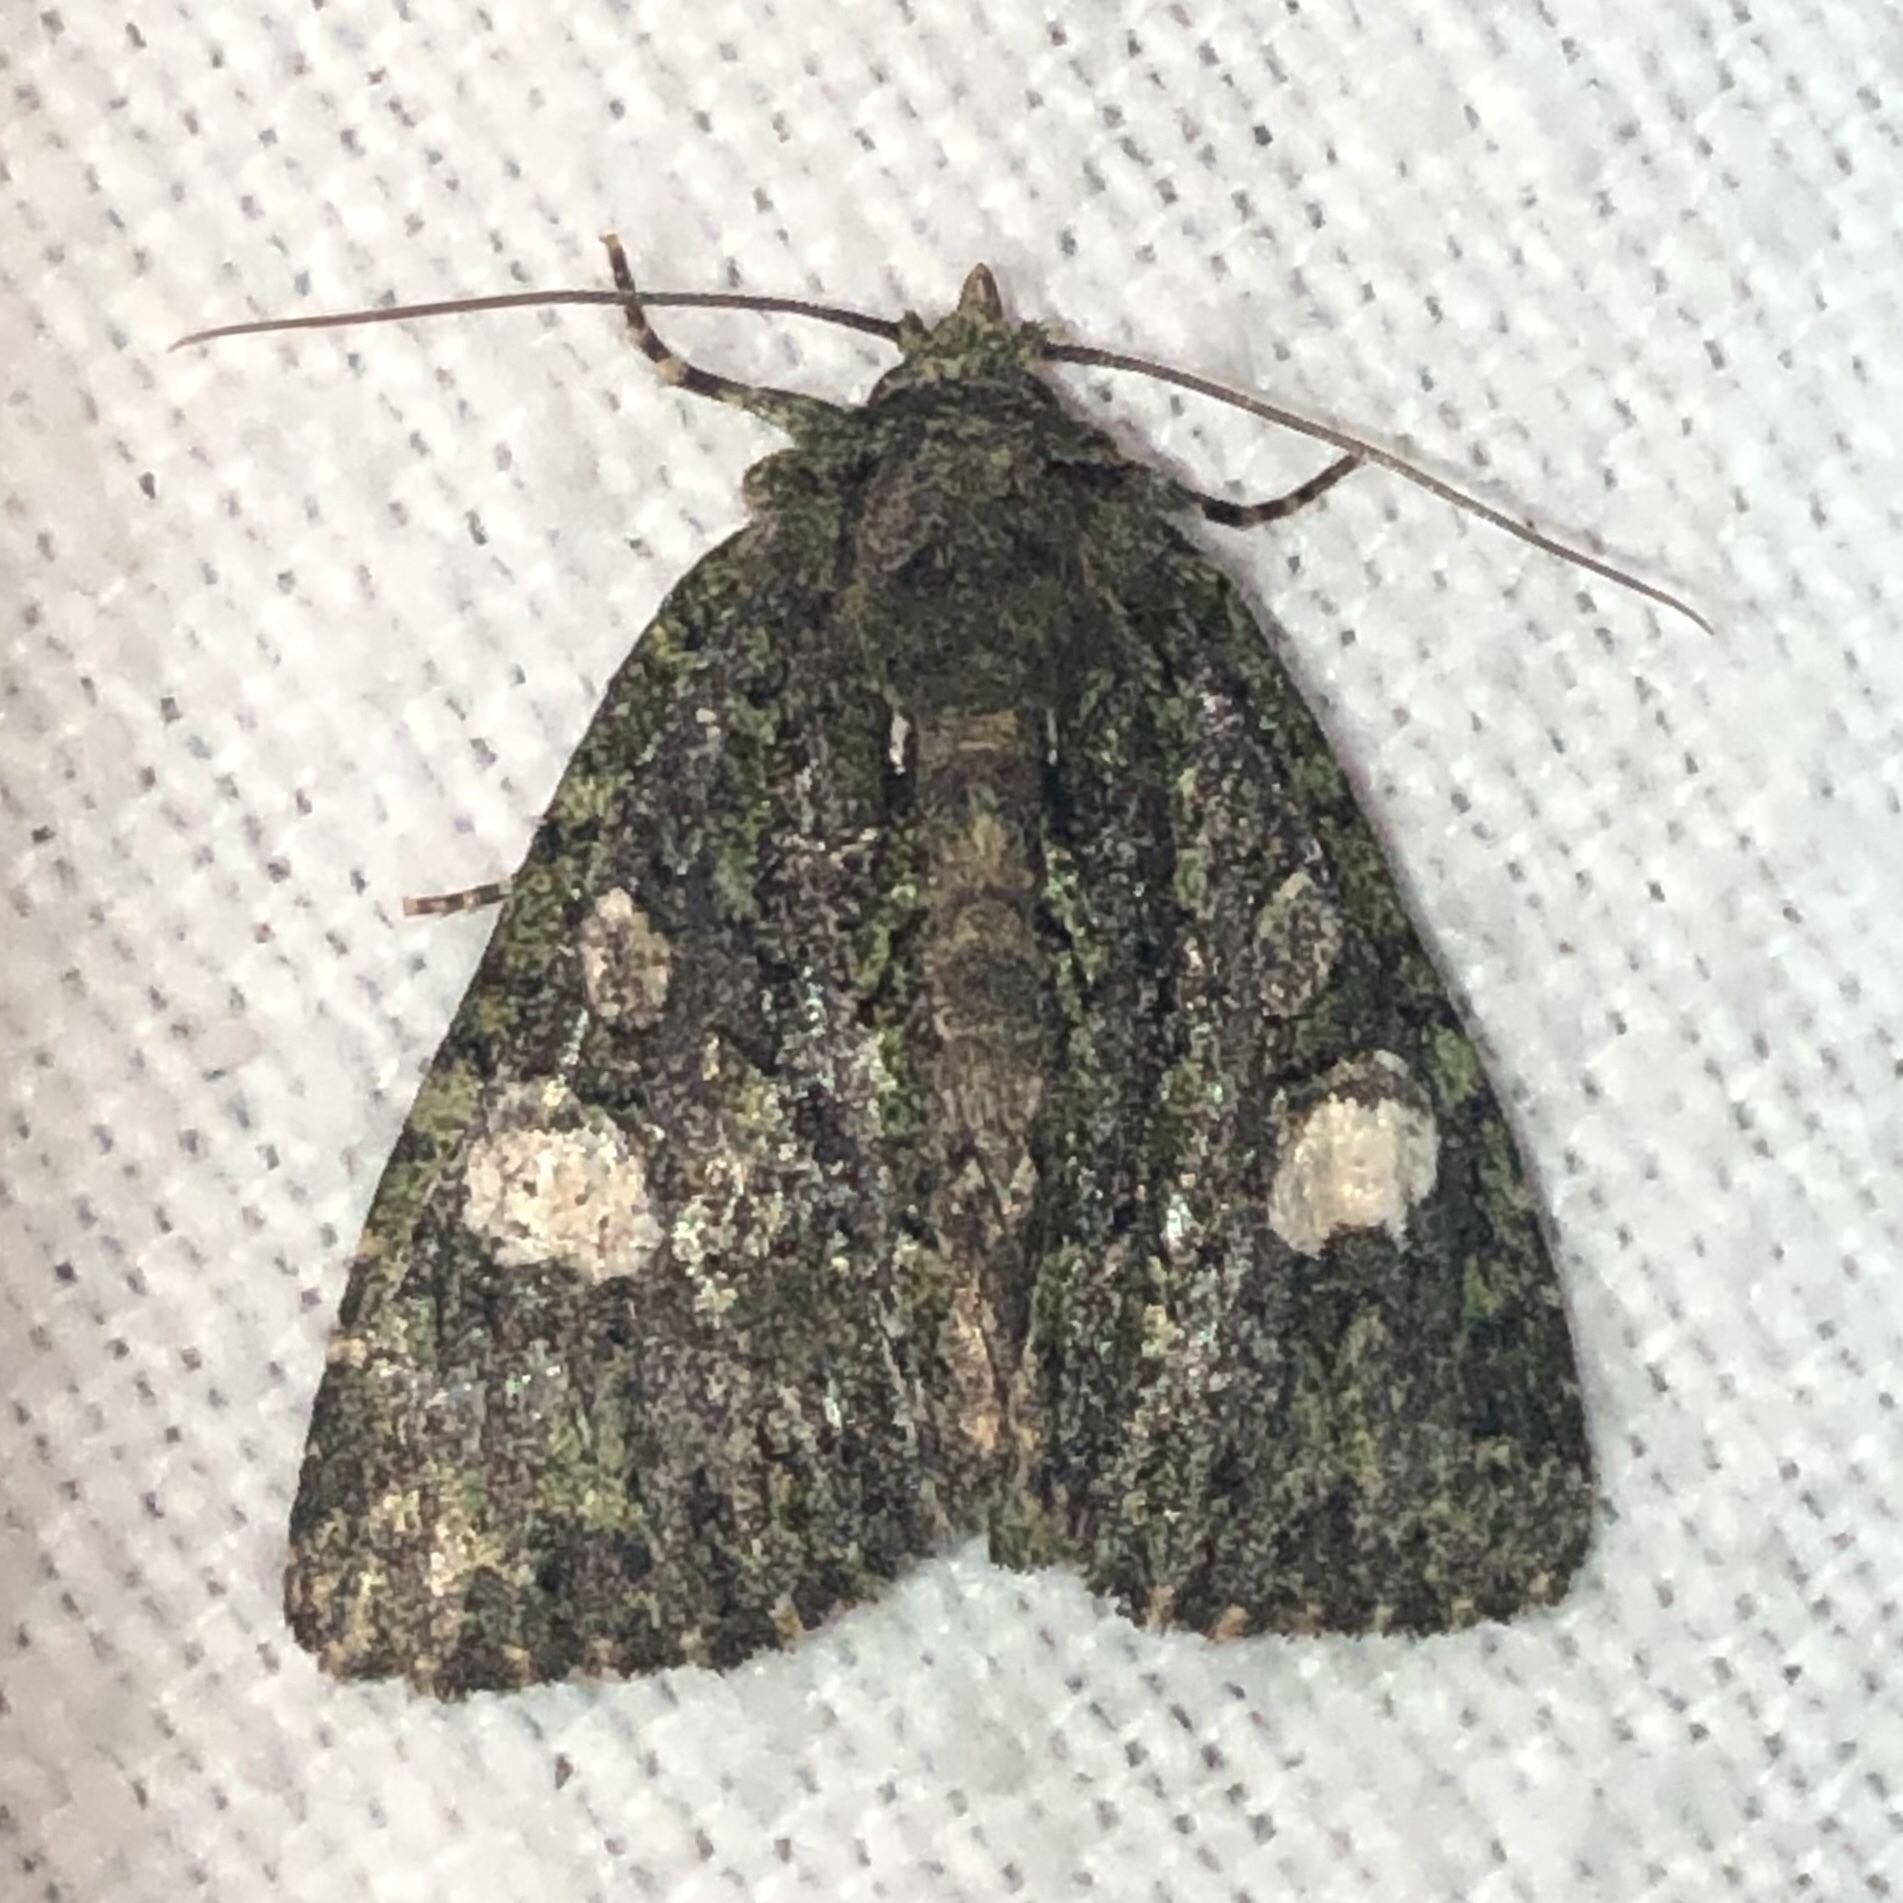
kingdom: Animalia
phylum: Arthropoda
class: Insecta
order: Lepidoptera
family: Noctuidae
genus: Phosphila
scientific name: Phosphila miselioides
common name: Spotted phosphila moth
